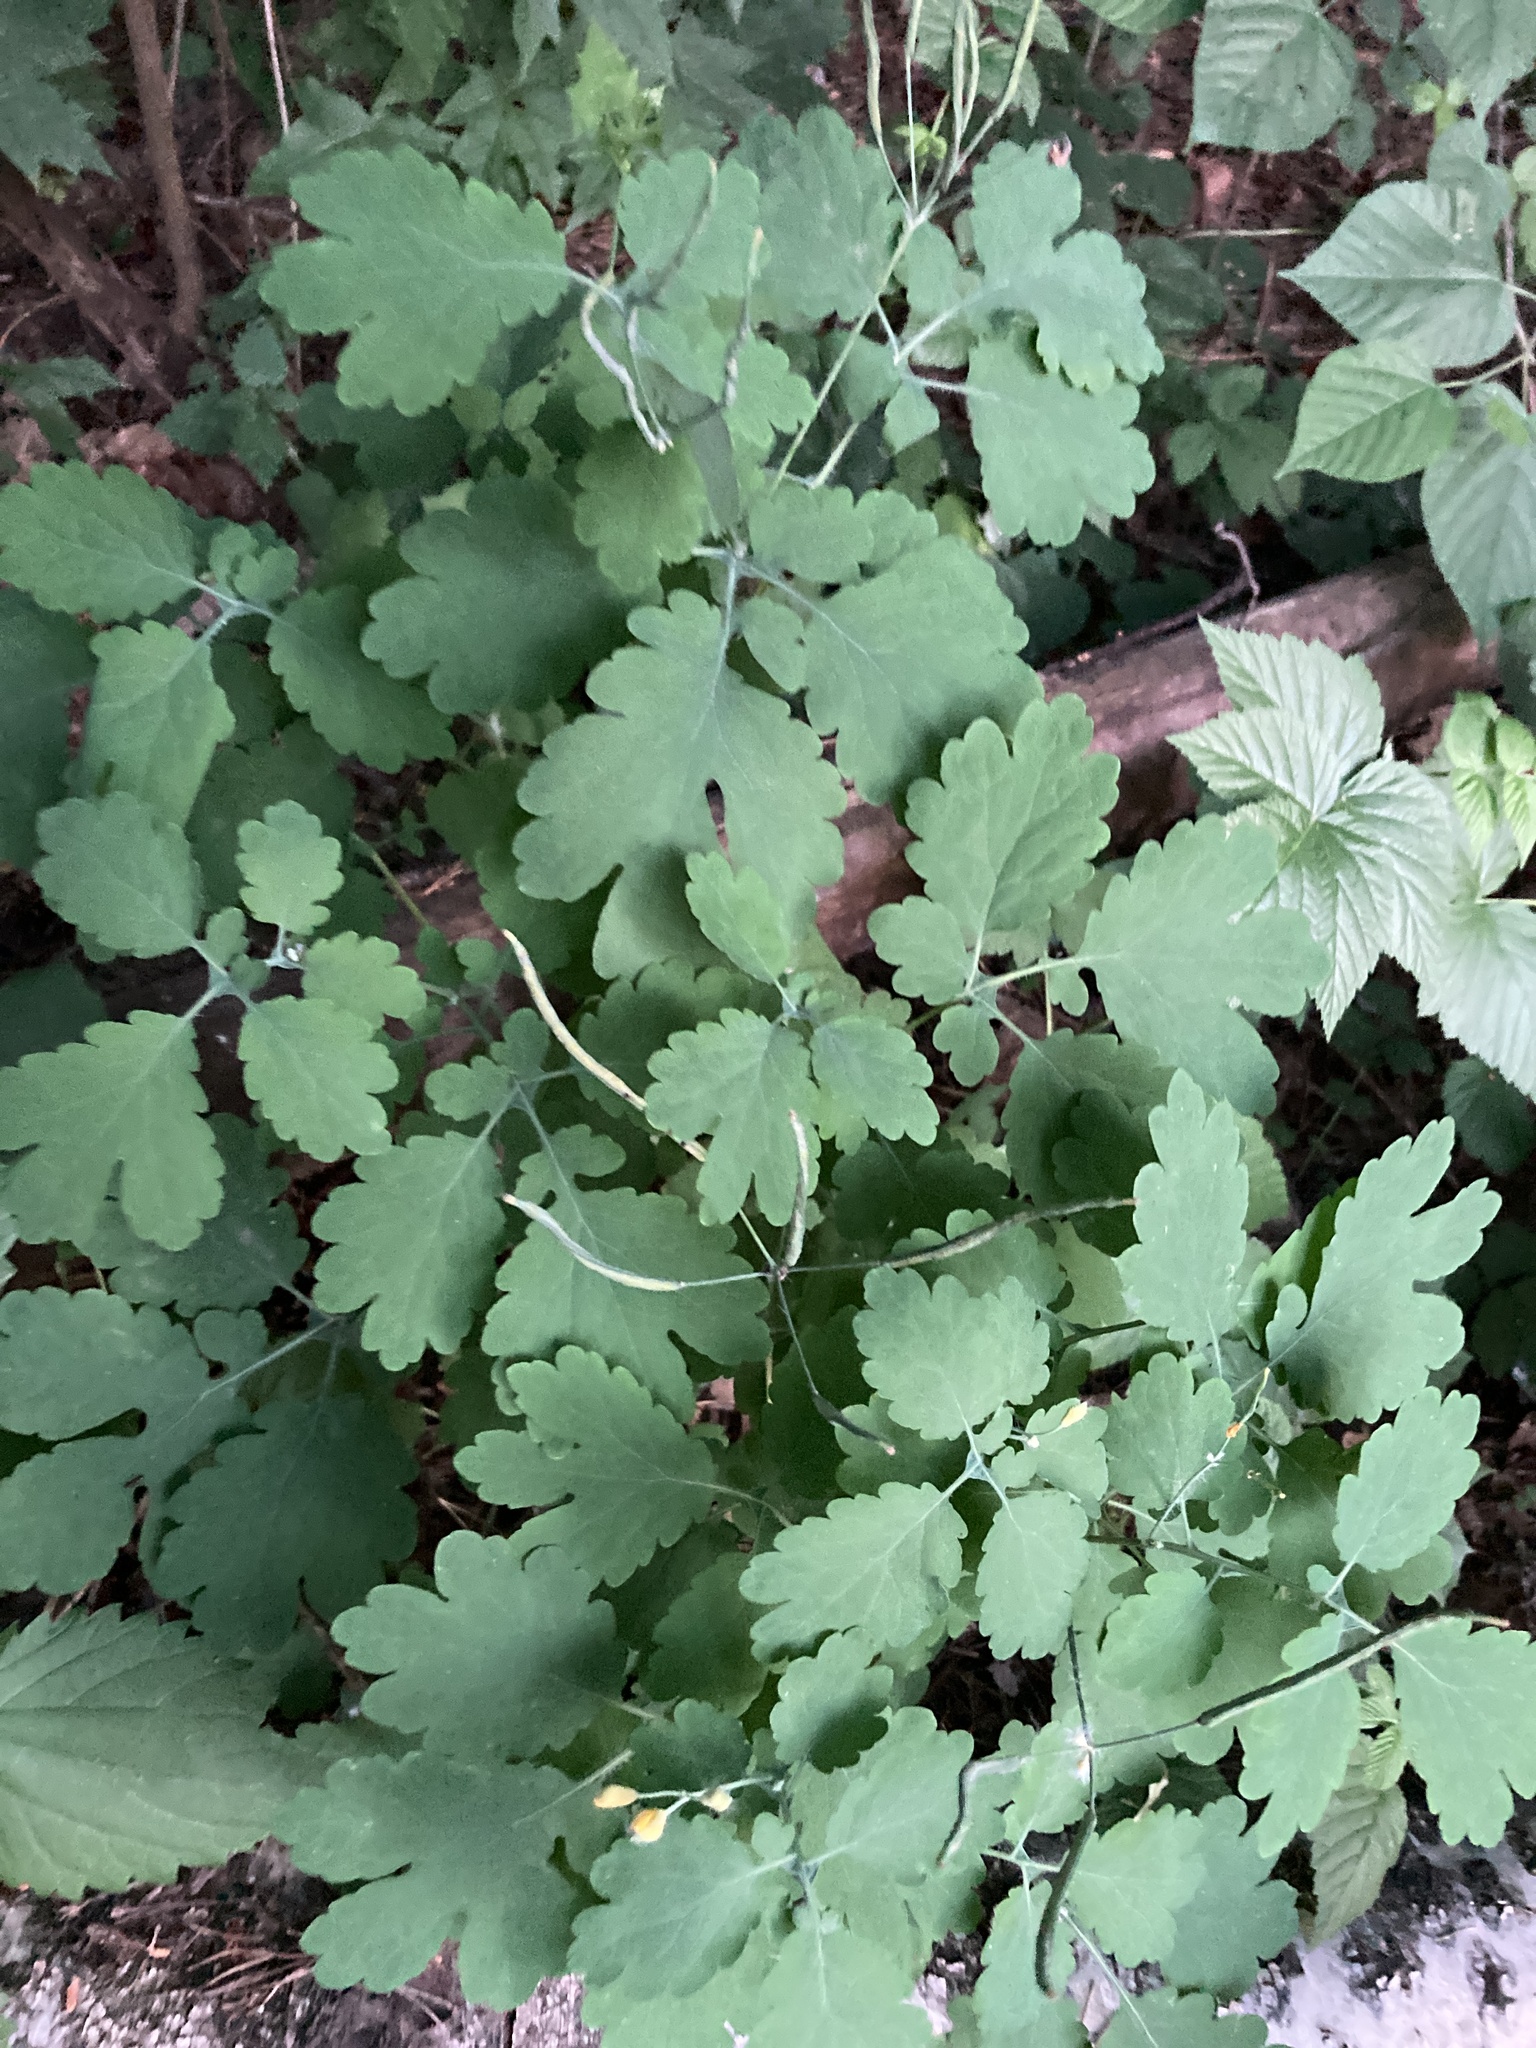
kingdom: Plantae
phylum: Tracheophyta
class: Magnoliopsida
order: Ranunculales
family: Papaveraceae
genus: Chelidonium
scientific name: Chelidonium majus
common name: Greater celandine
